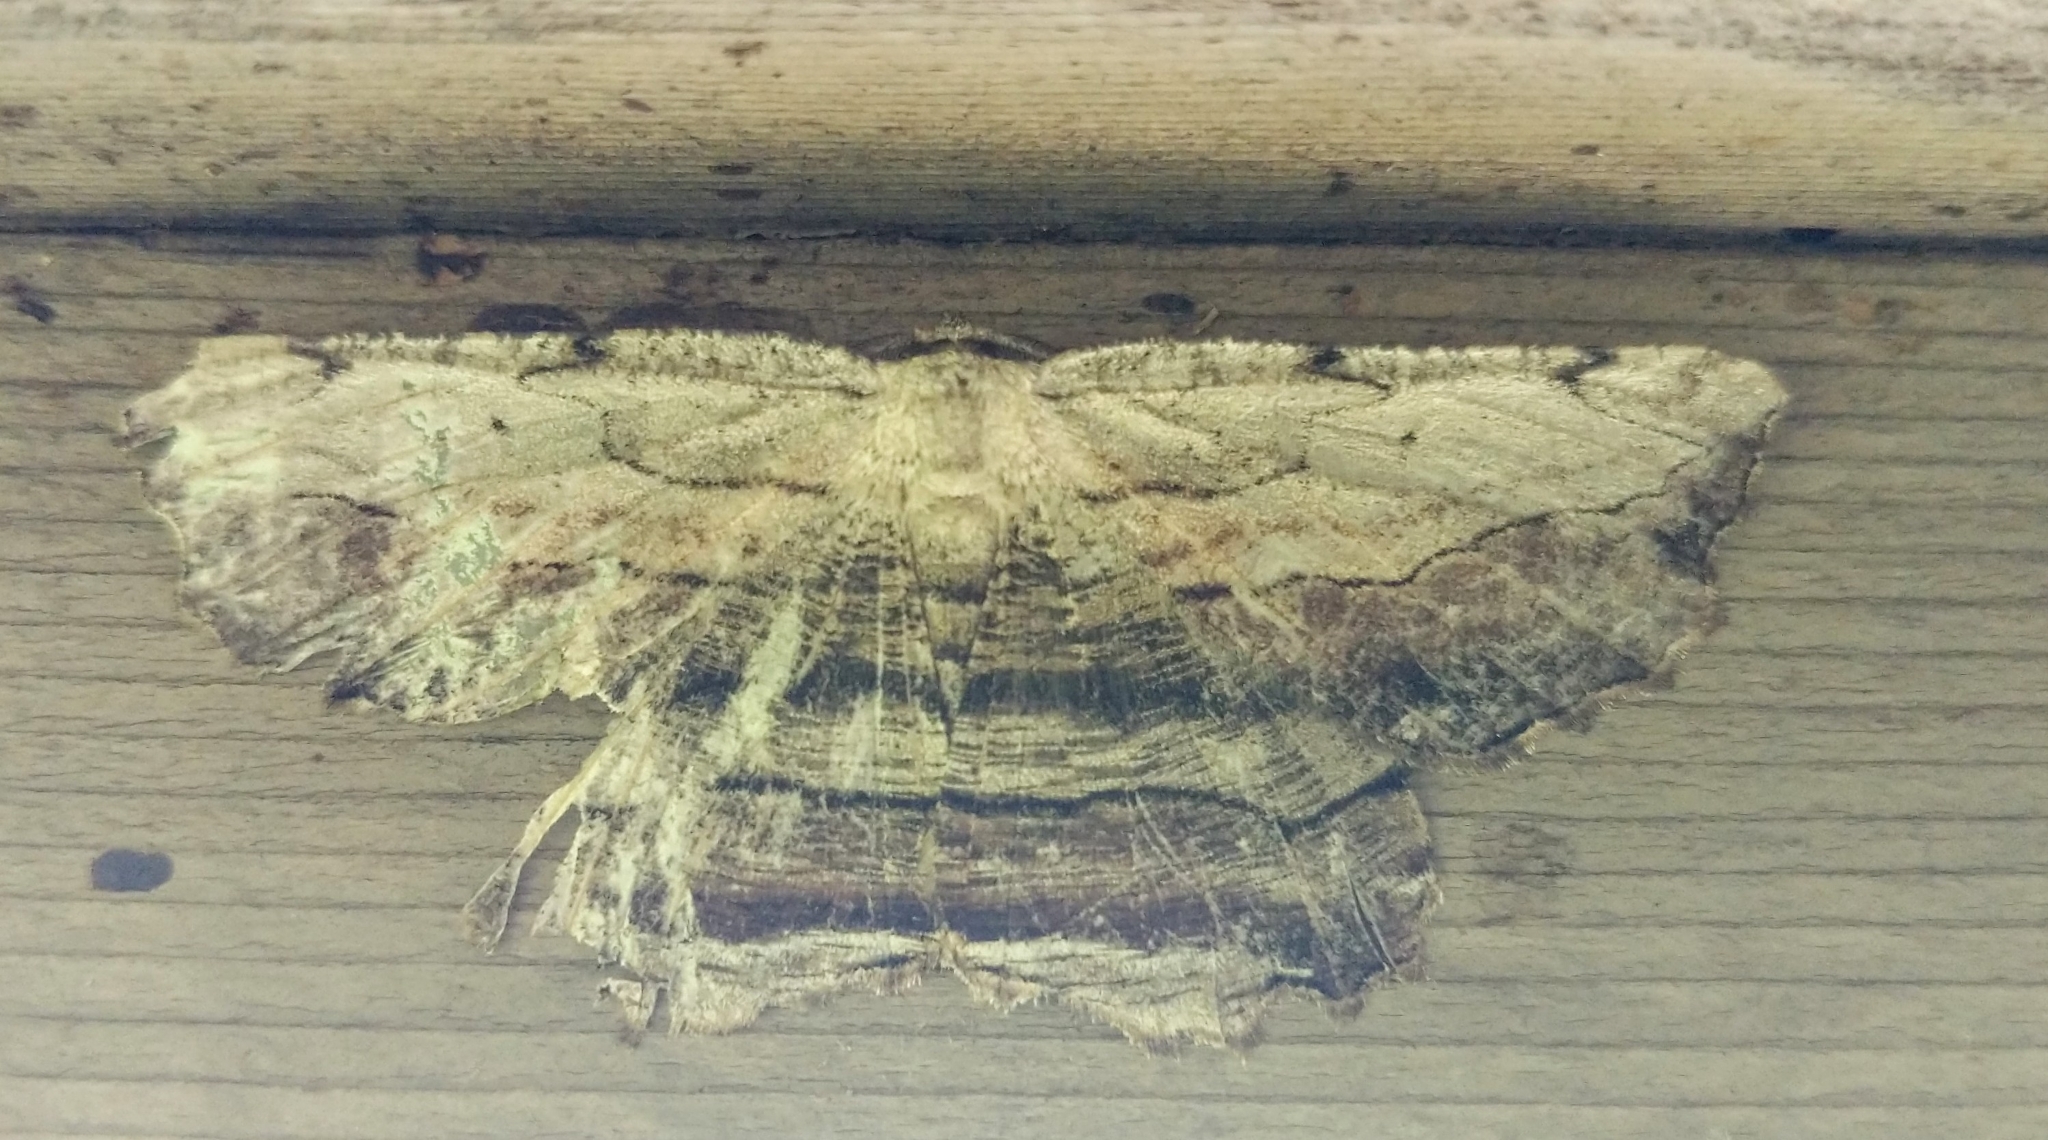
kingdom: Animalia
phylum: Arthropoda
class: Insecta
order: Lepidoptera
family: Geometridae
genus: Lytrosis
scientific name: Lytrosis unitaria
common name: Common lytrosis
